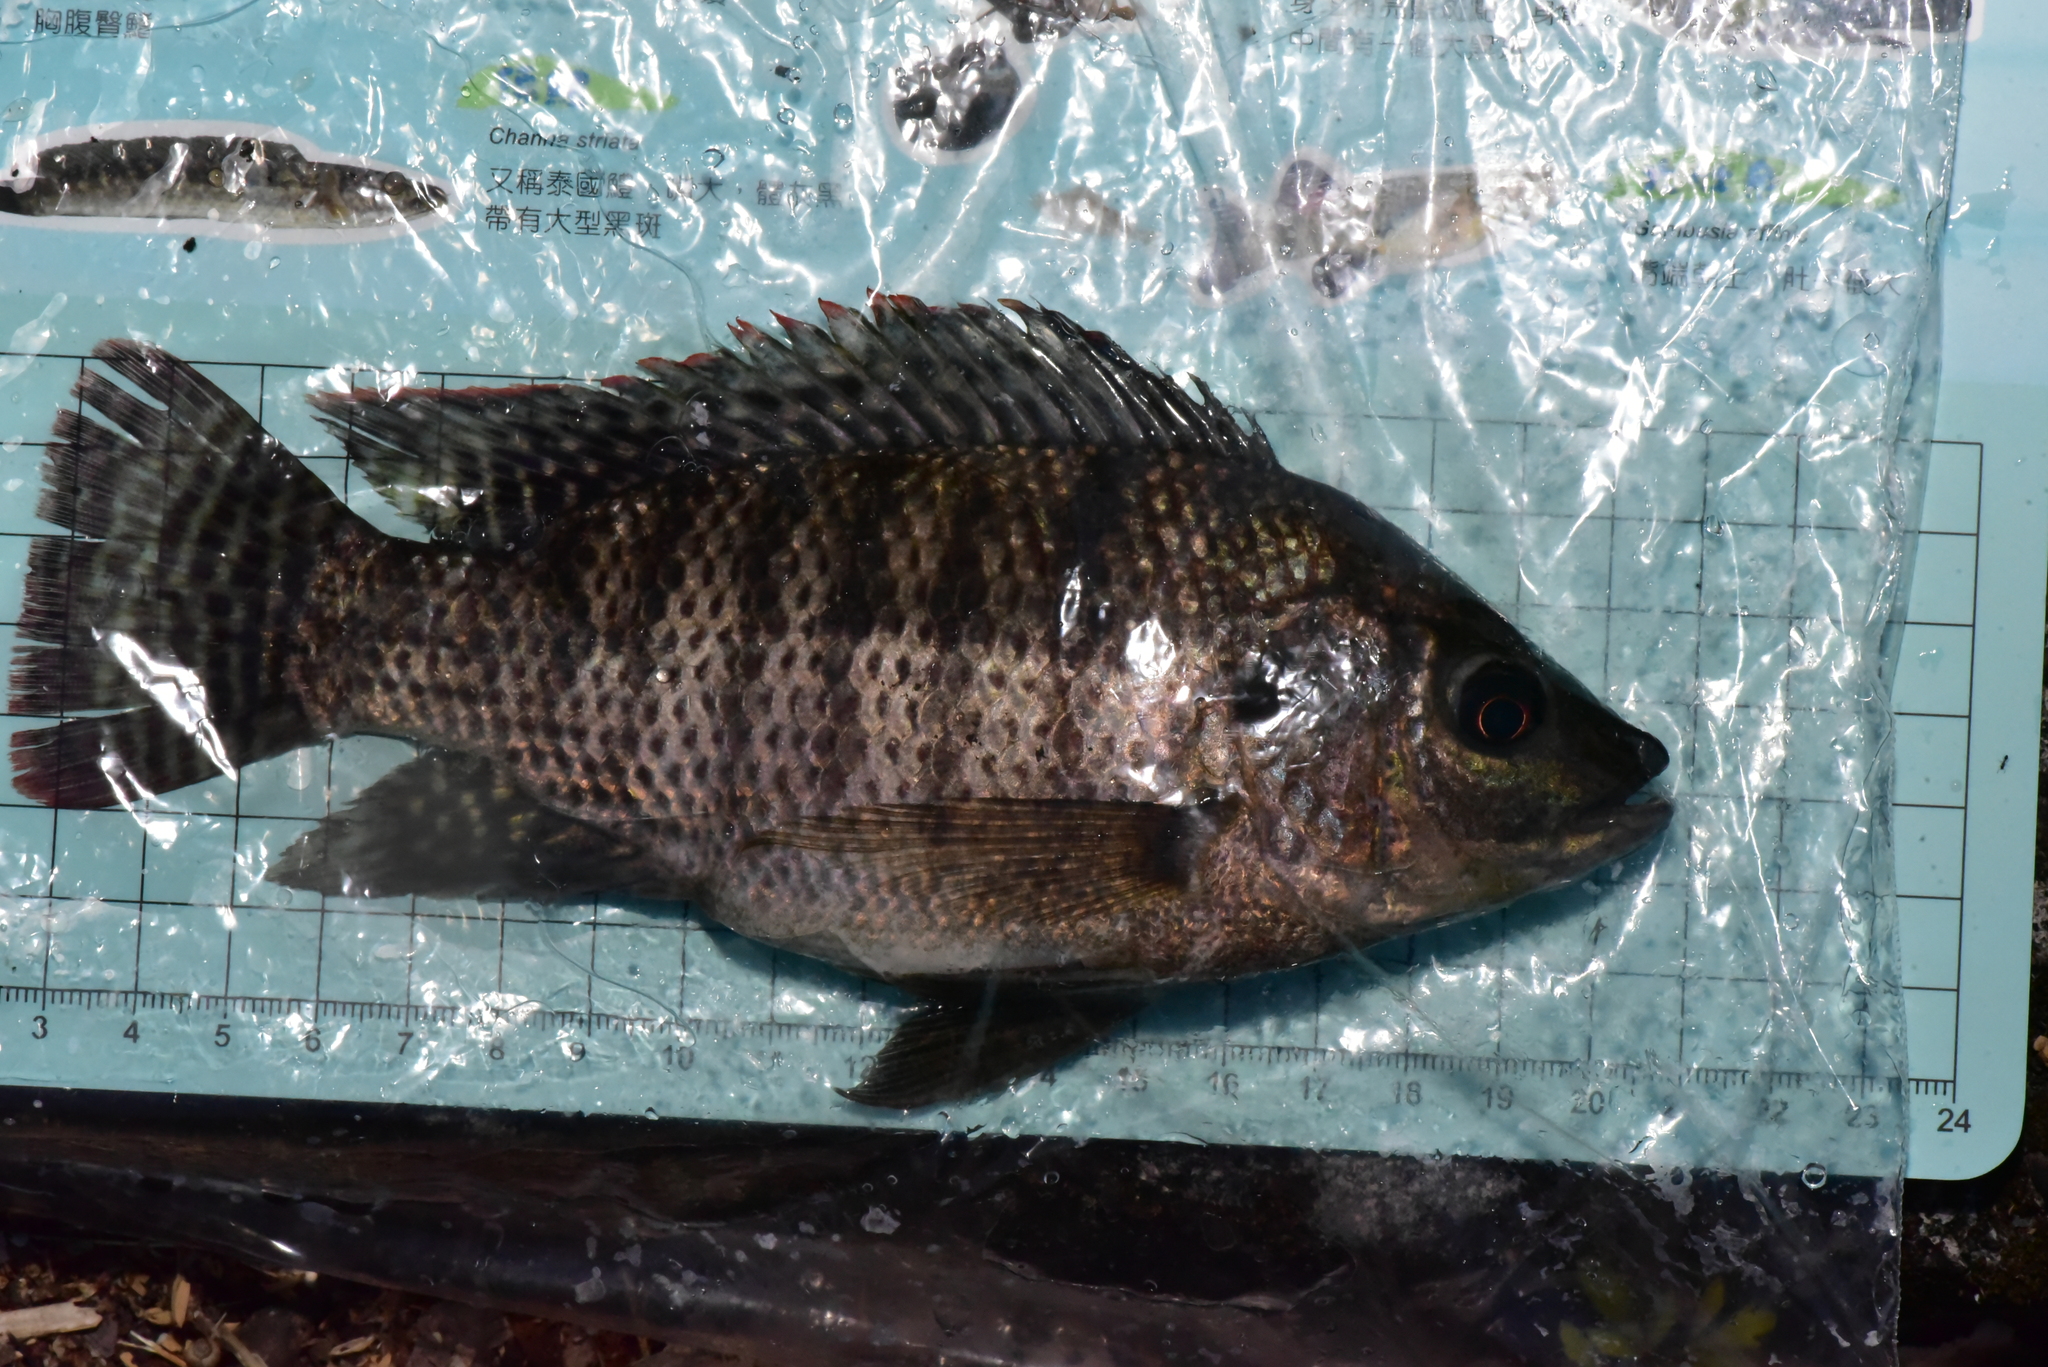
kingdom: Animalia
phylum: Chordata
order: Perciformes
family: Cichlidae
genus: Oreochromis
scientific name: Oreochromis niloticus
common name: Nile tilapia
